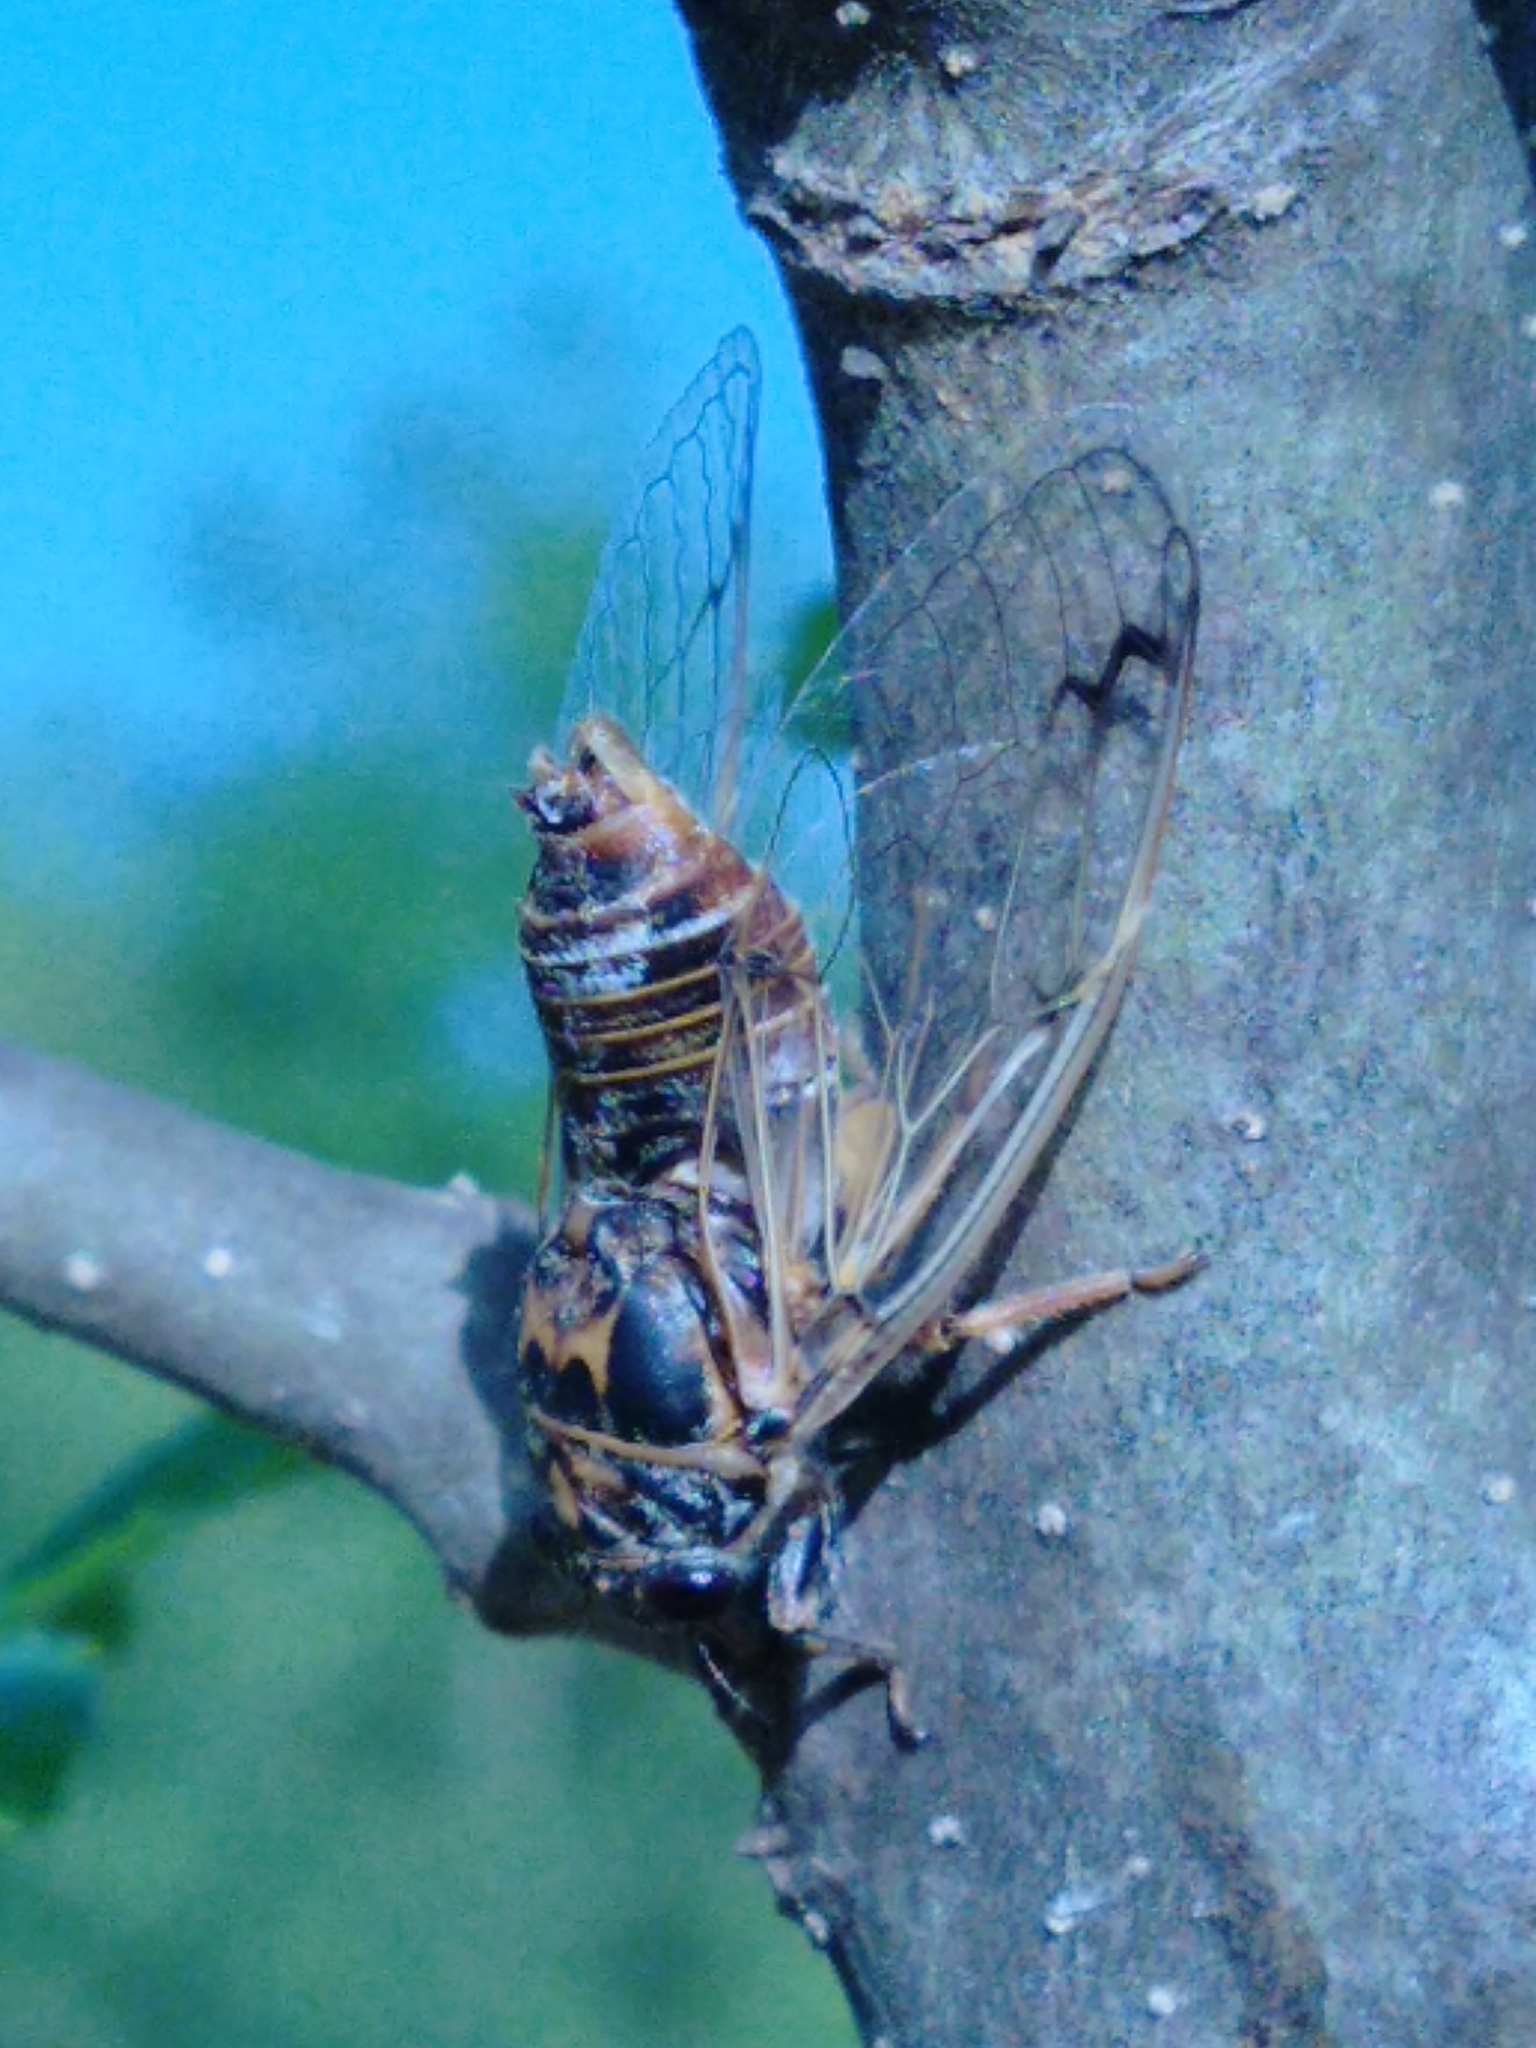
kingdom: Animalia
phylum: Arthropoda
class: Insecta
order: Hemiptera
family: Cicadidae
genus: Cicadatra
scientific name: Cicadatra atra
